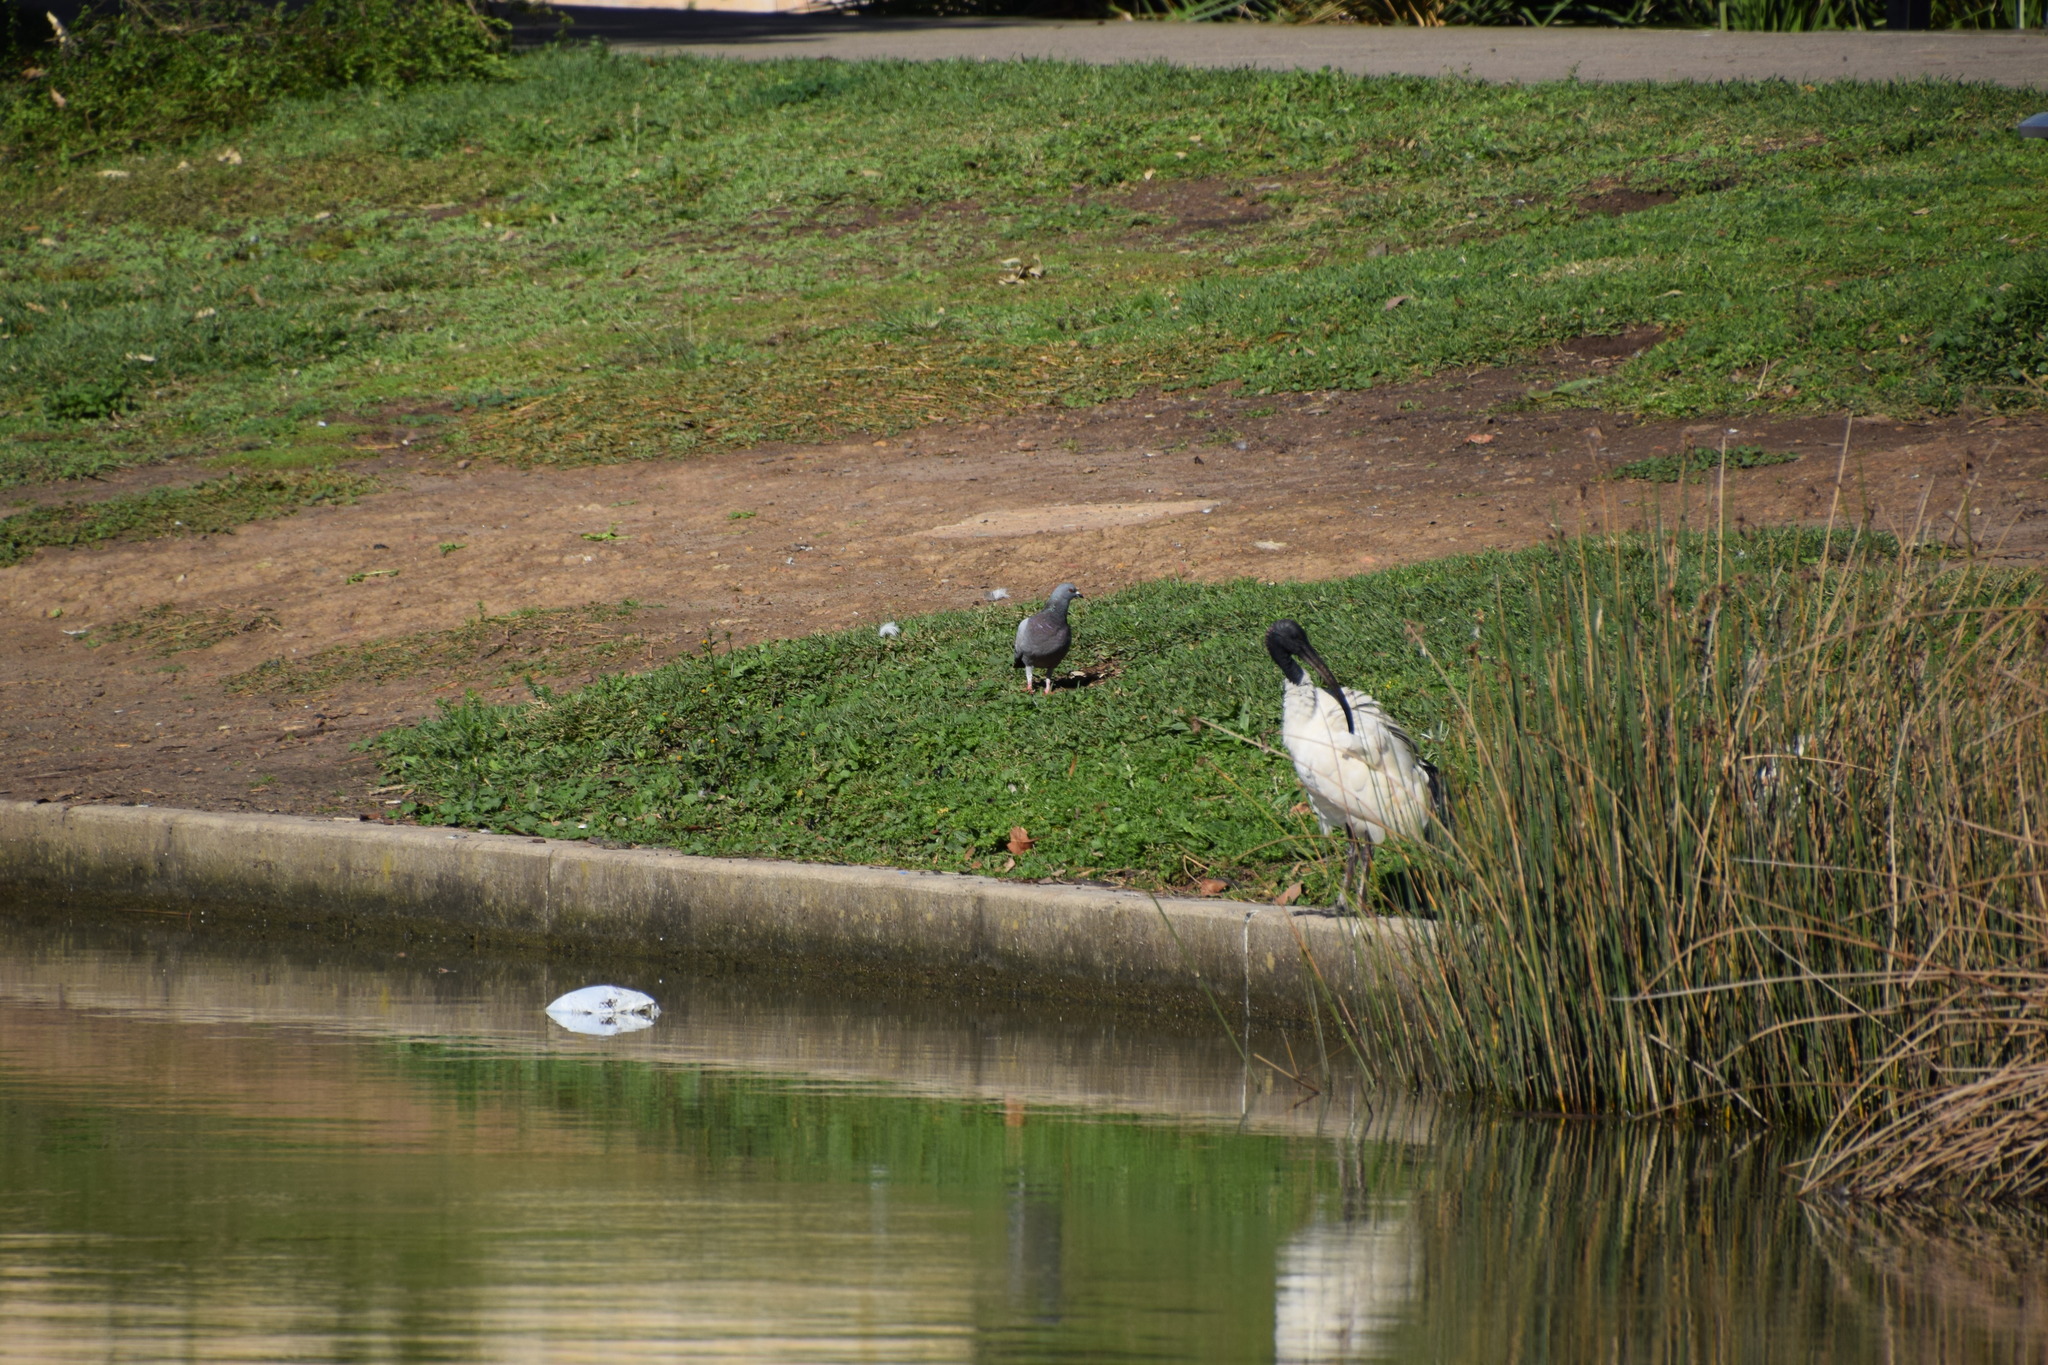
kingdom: Animalia
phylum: Chordata
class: Aves
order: Columbiformes
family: Columbidae
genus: Columba
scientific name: Columba livia
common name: Rock pigeon
